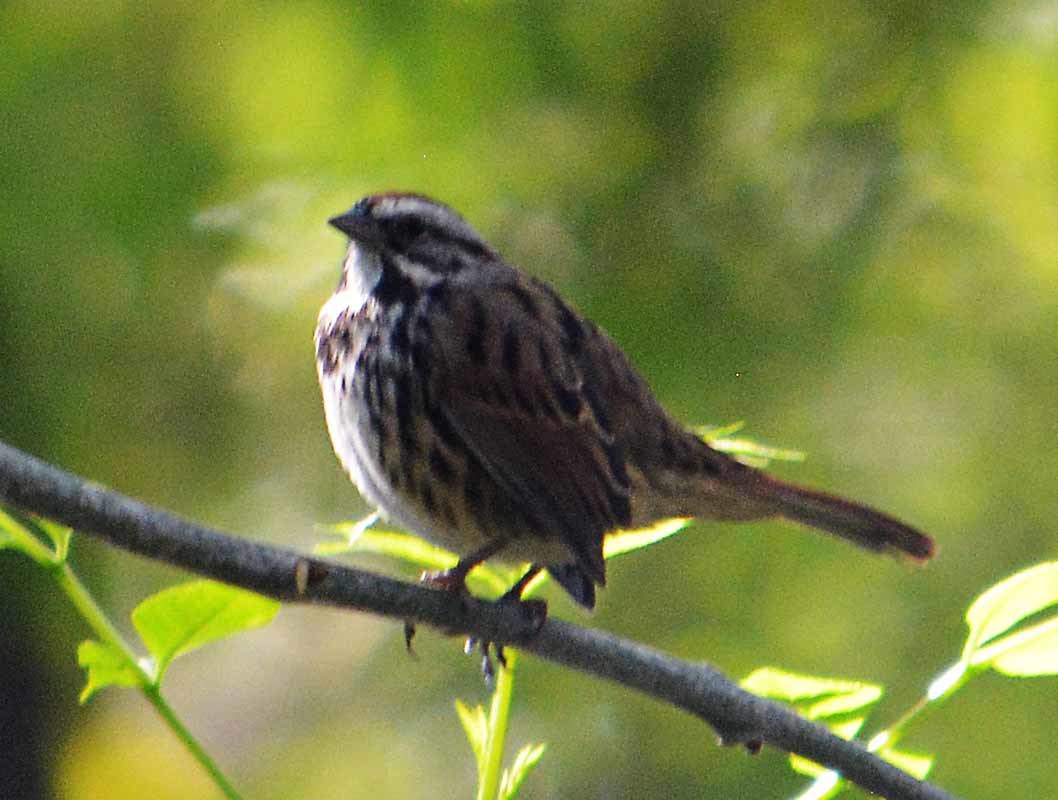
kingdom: Animalia
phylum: Chordata
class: Aves
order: Passeriformes
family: Passerellidae
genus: Melospiza
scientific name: Melospiza melodia
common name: Song sparrow
